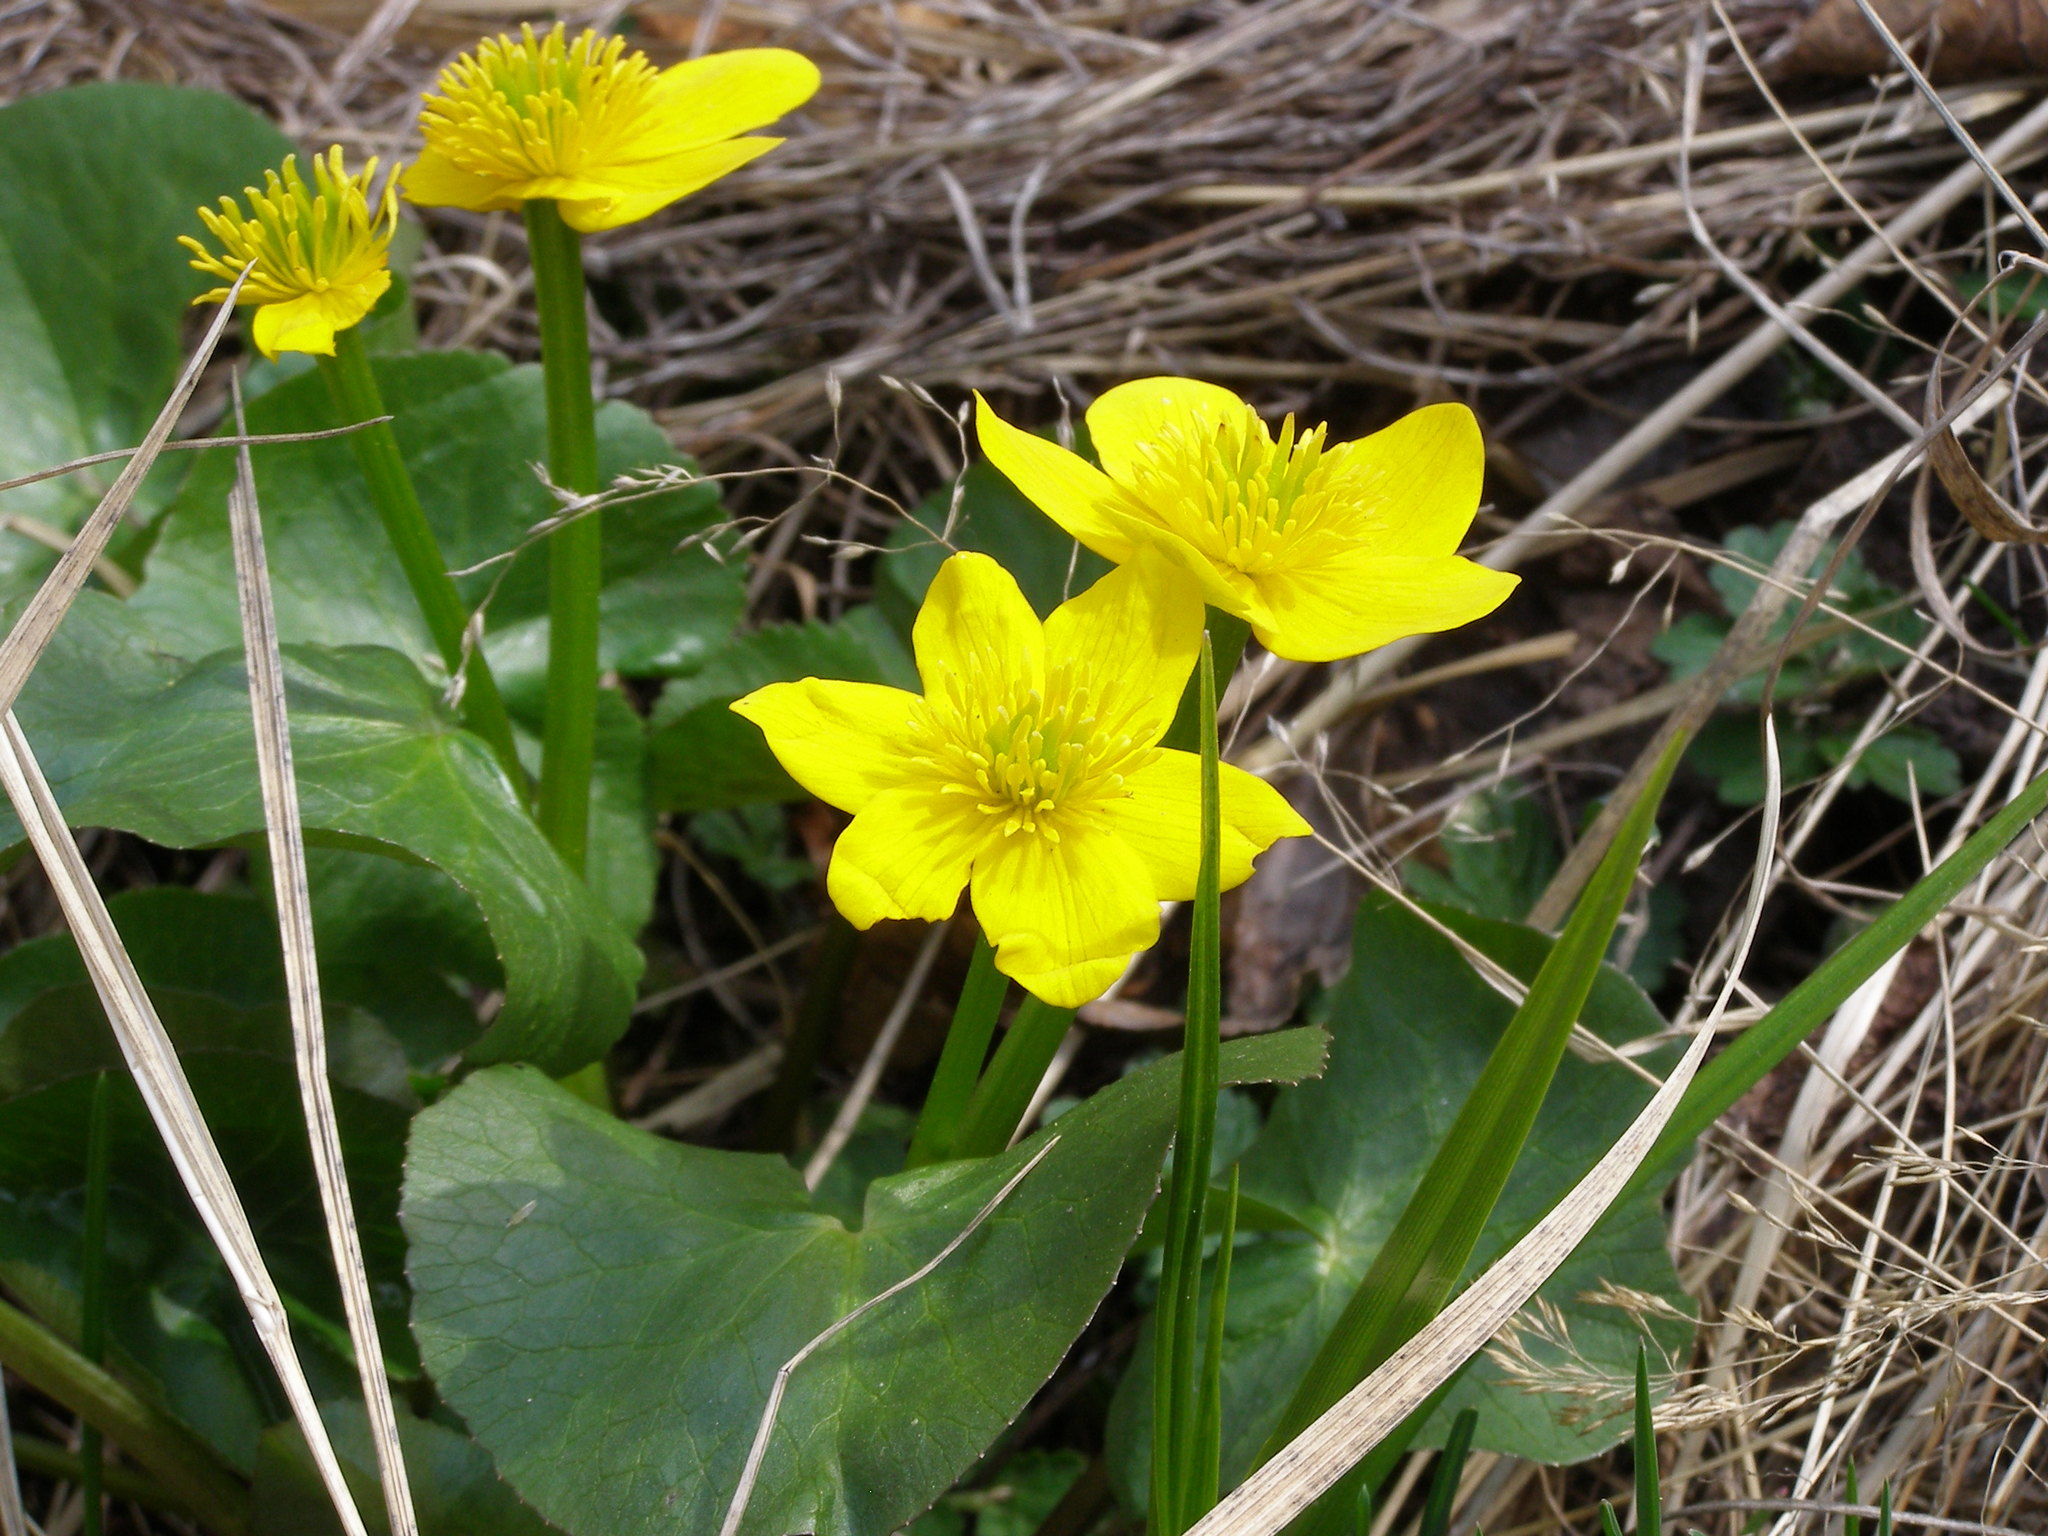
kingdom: Plantae
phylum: Tracheophyta
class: Magnoliopsida
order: Ranunculales
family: Ranunculaceae
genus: Caltha
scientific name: Caltha palustris
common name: Marsh marigold
